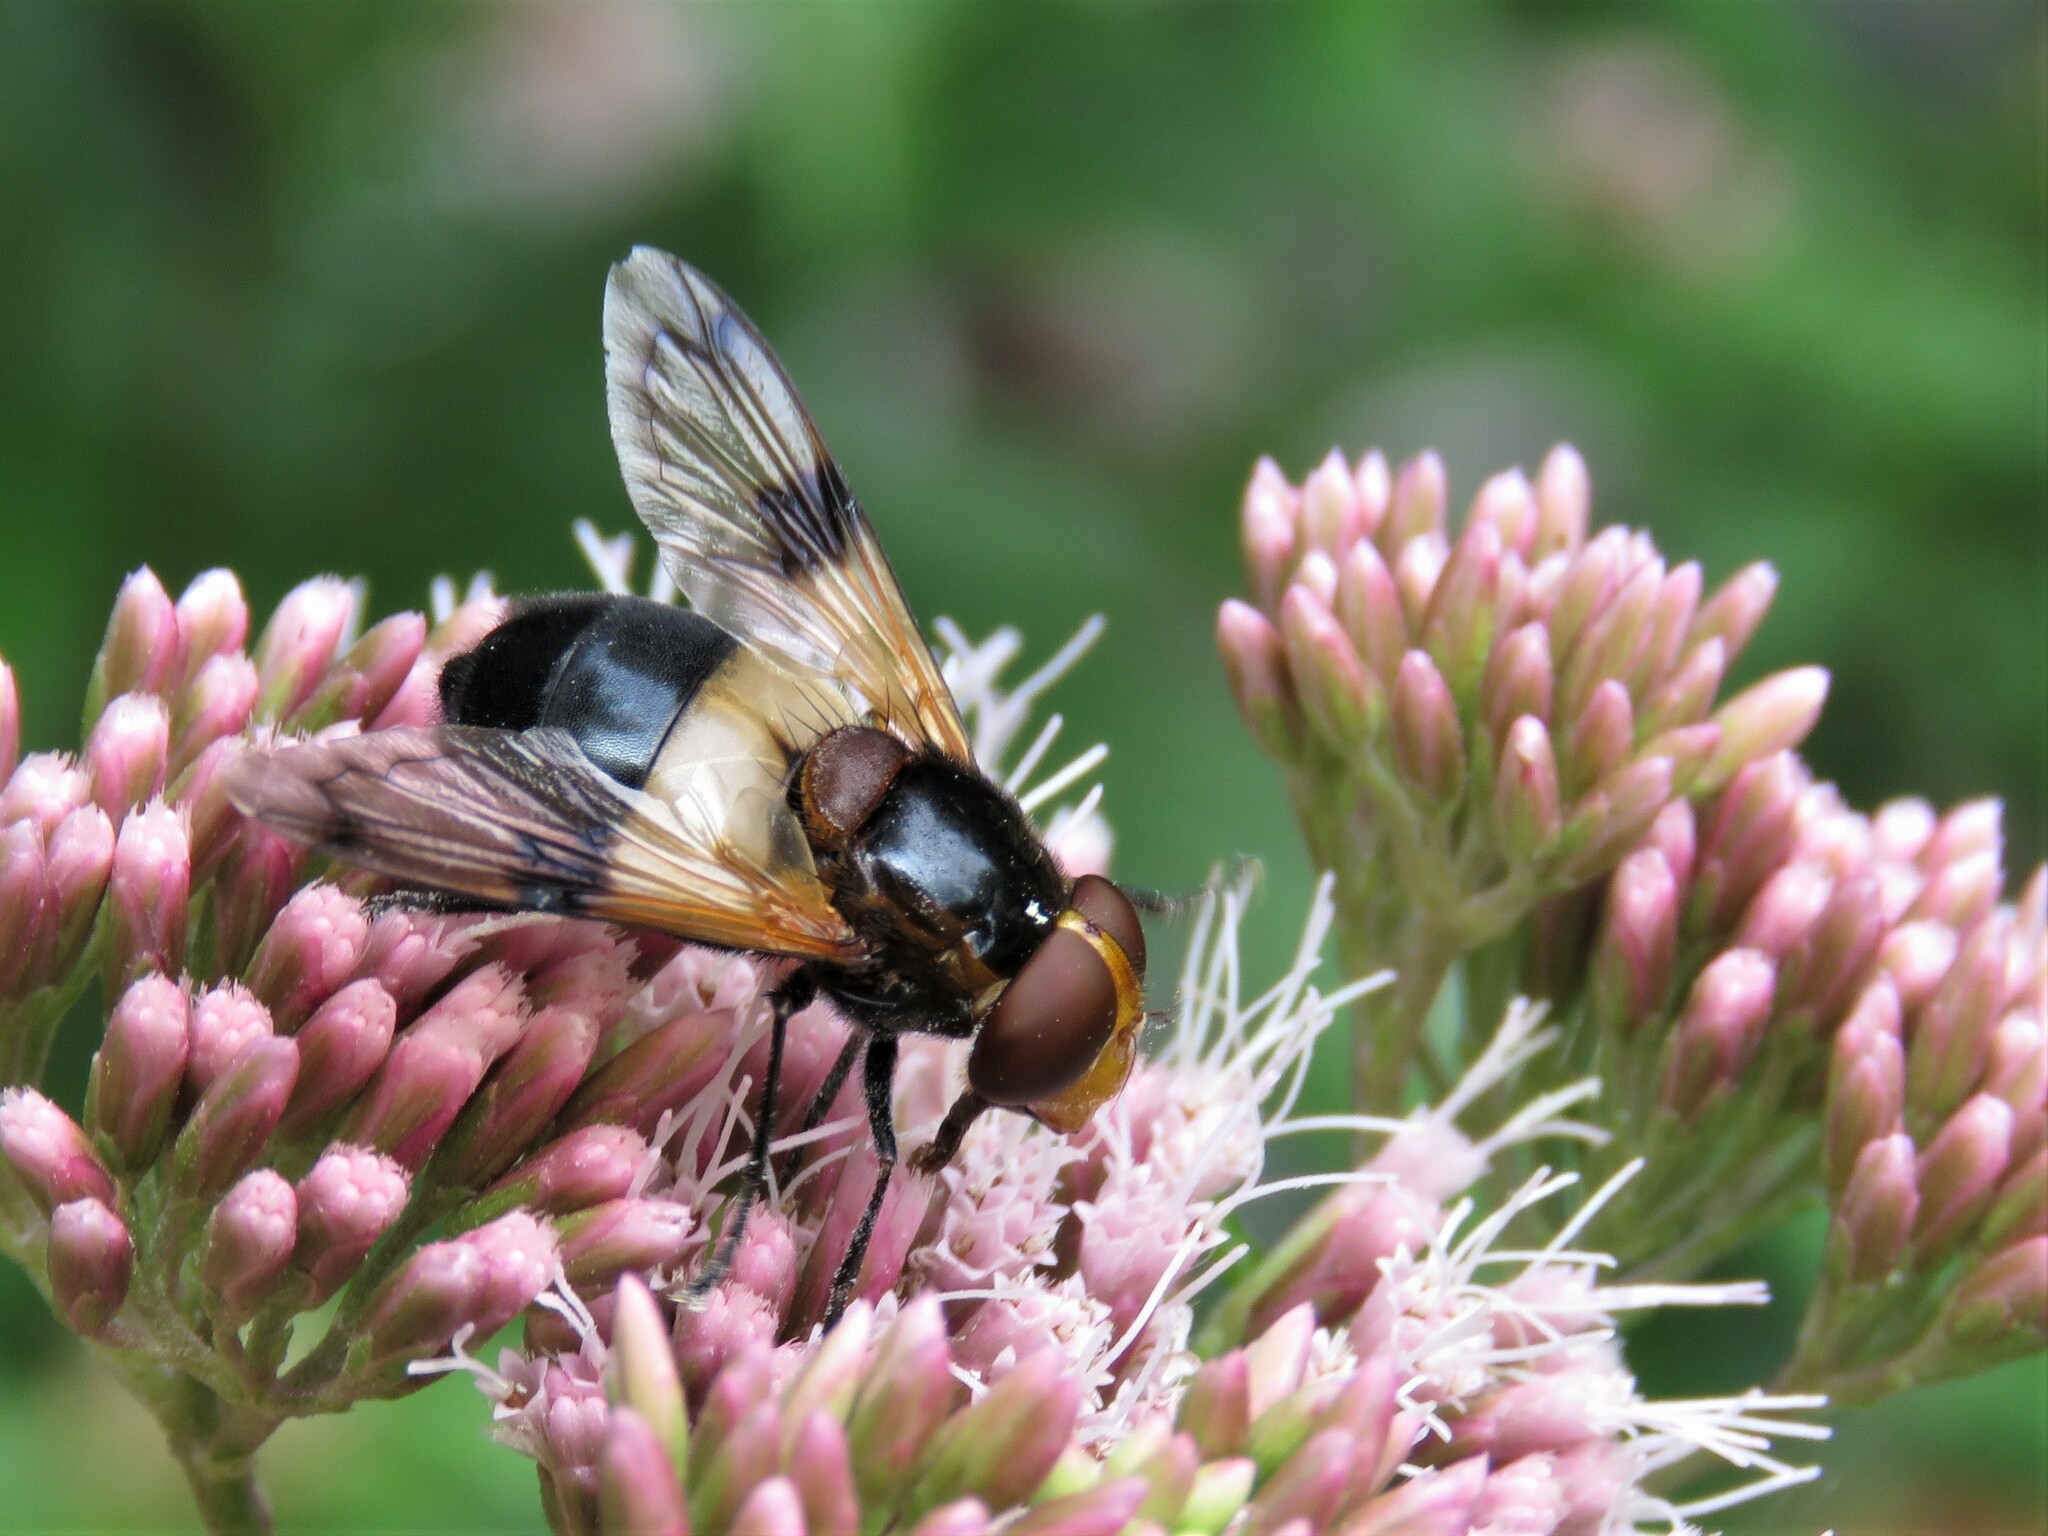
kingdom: Animalia
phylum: Arthropoda
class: Insecta
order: Diptera
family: Syrphidae
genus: Volucella
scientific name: Volucella pellucens
